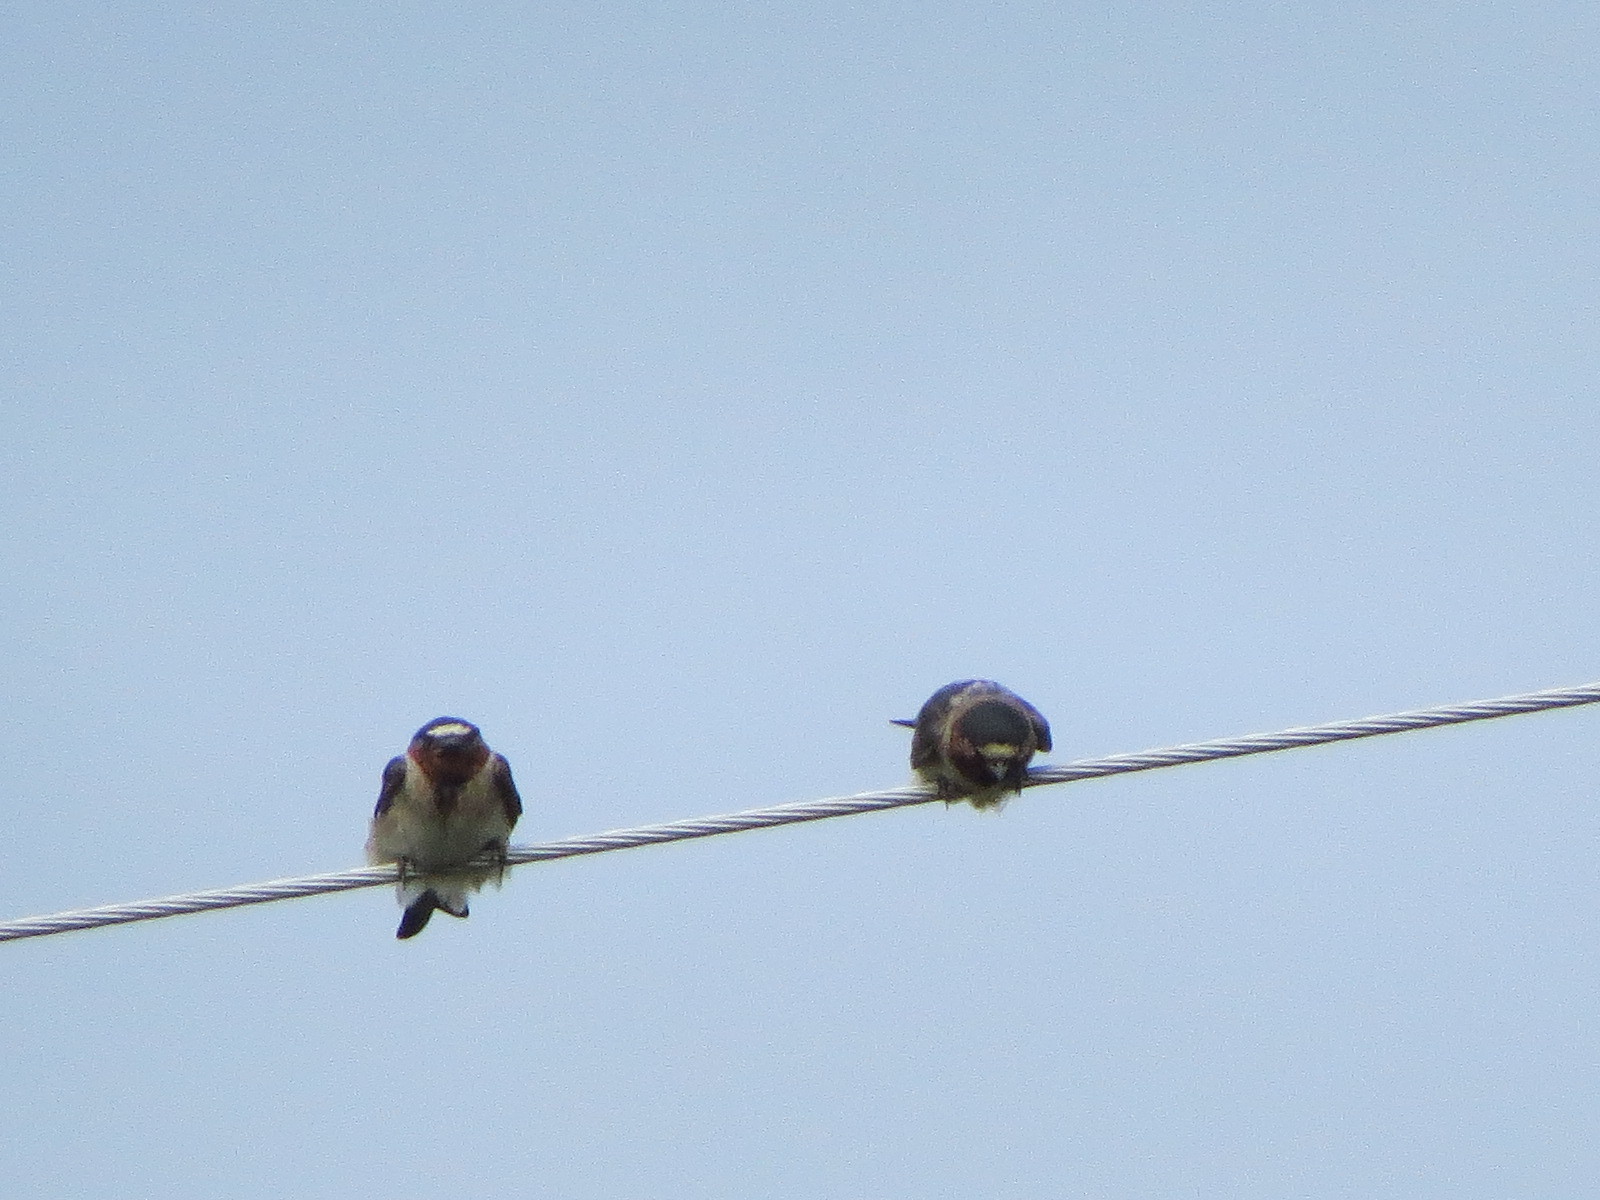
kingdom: Animalia
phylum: Chordata
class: Aves
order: Passeriformes
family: Hirundinidae
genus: Petrochelidon
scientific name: Petrochelidon pyrrhonota
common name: American cliff swallow
